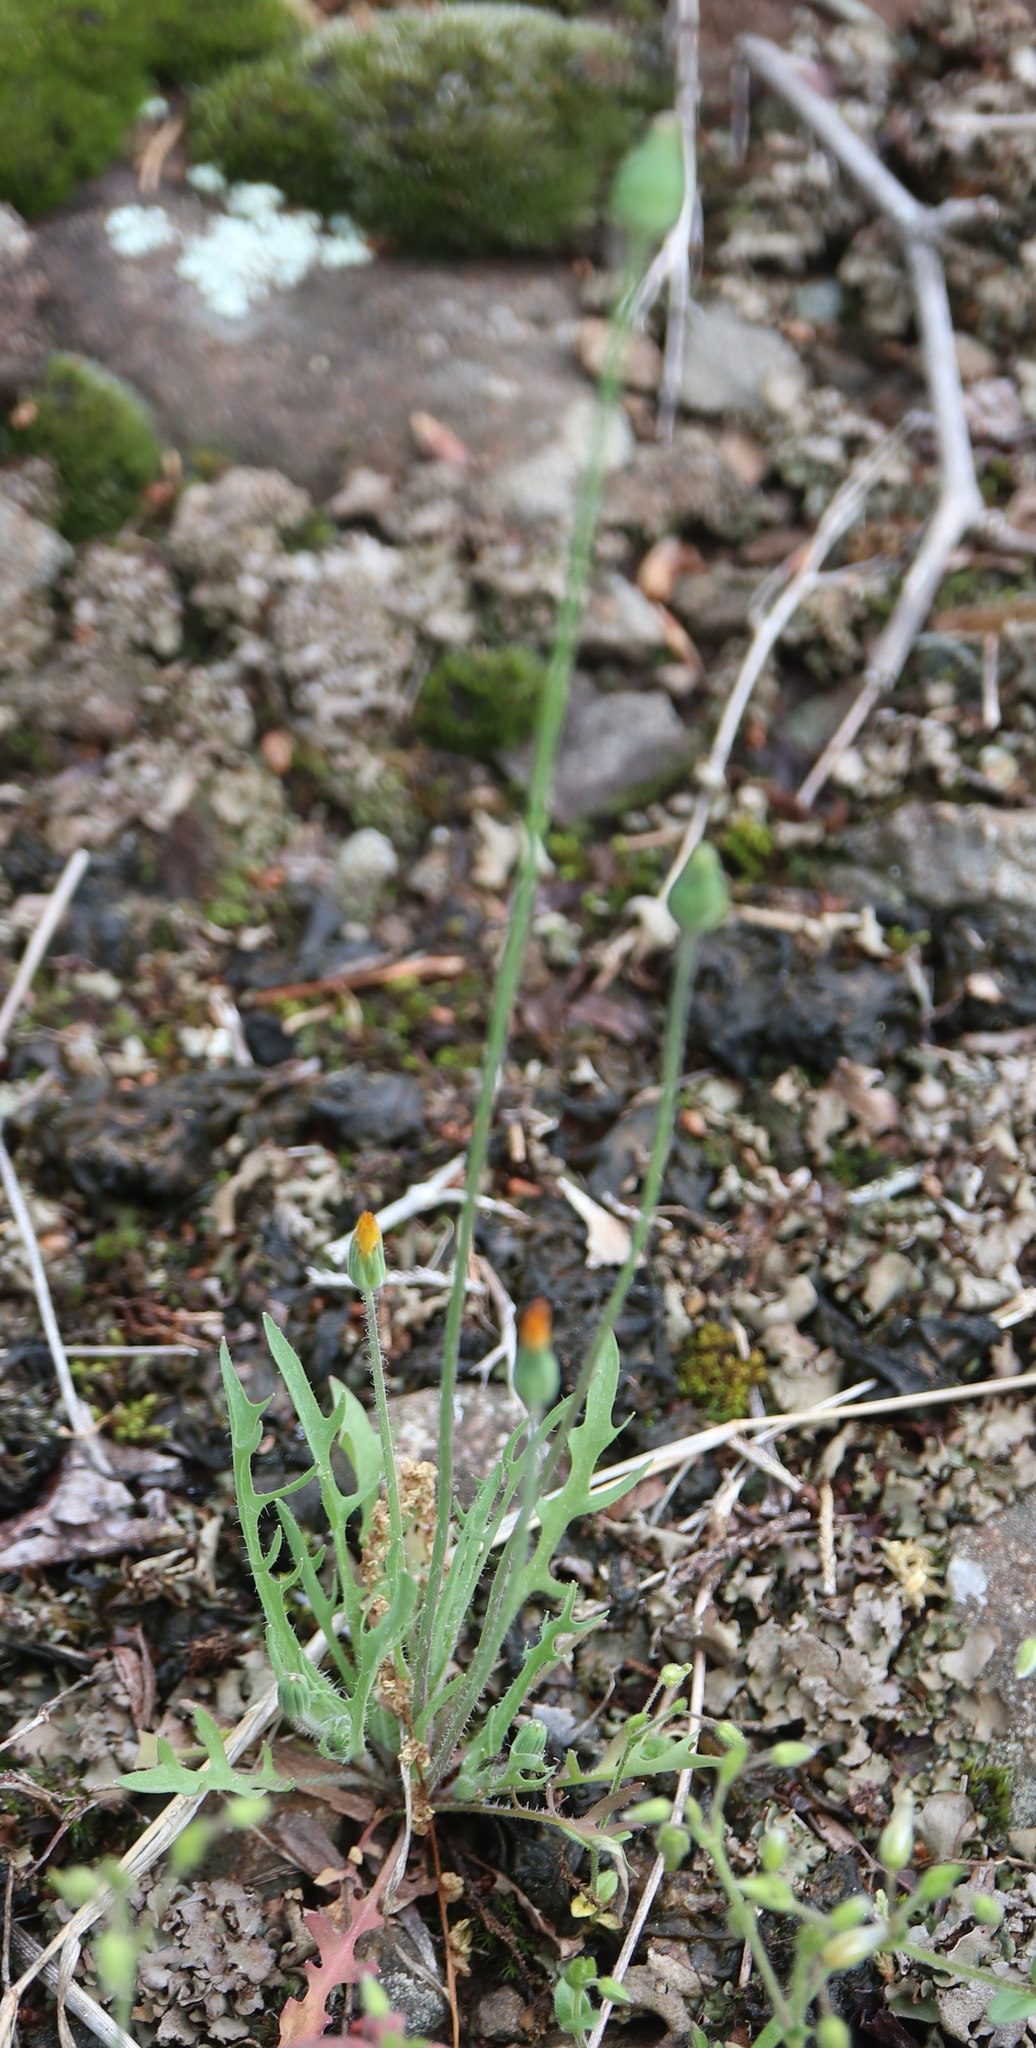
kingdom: Plantae
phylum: Tracheophyta
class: Magnoliopsida
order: Asterales
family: Asteraceae
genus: Krigia
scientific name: Krigia virginica
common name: Virginia dwarf-dandelion
